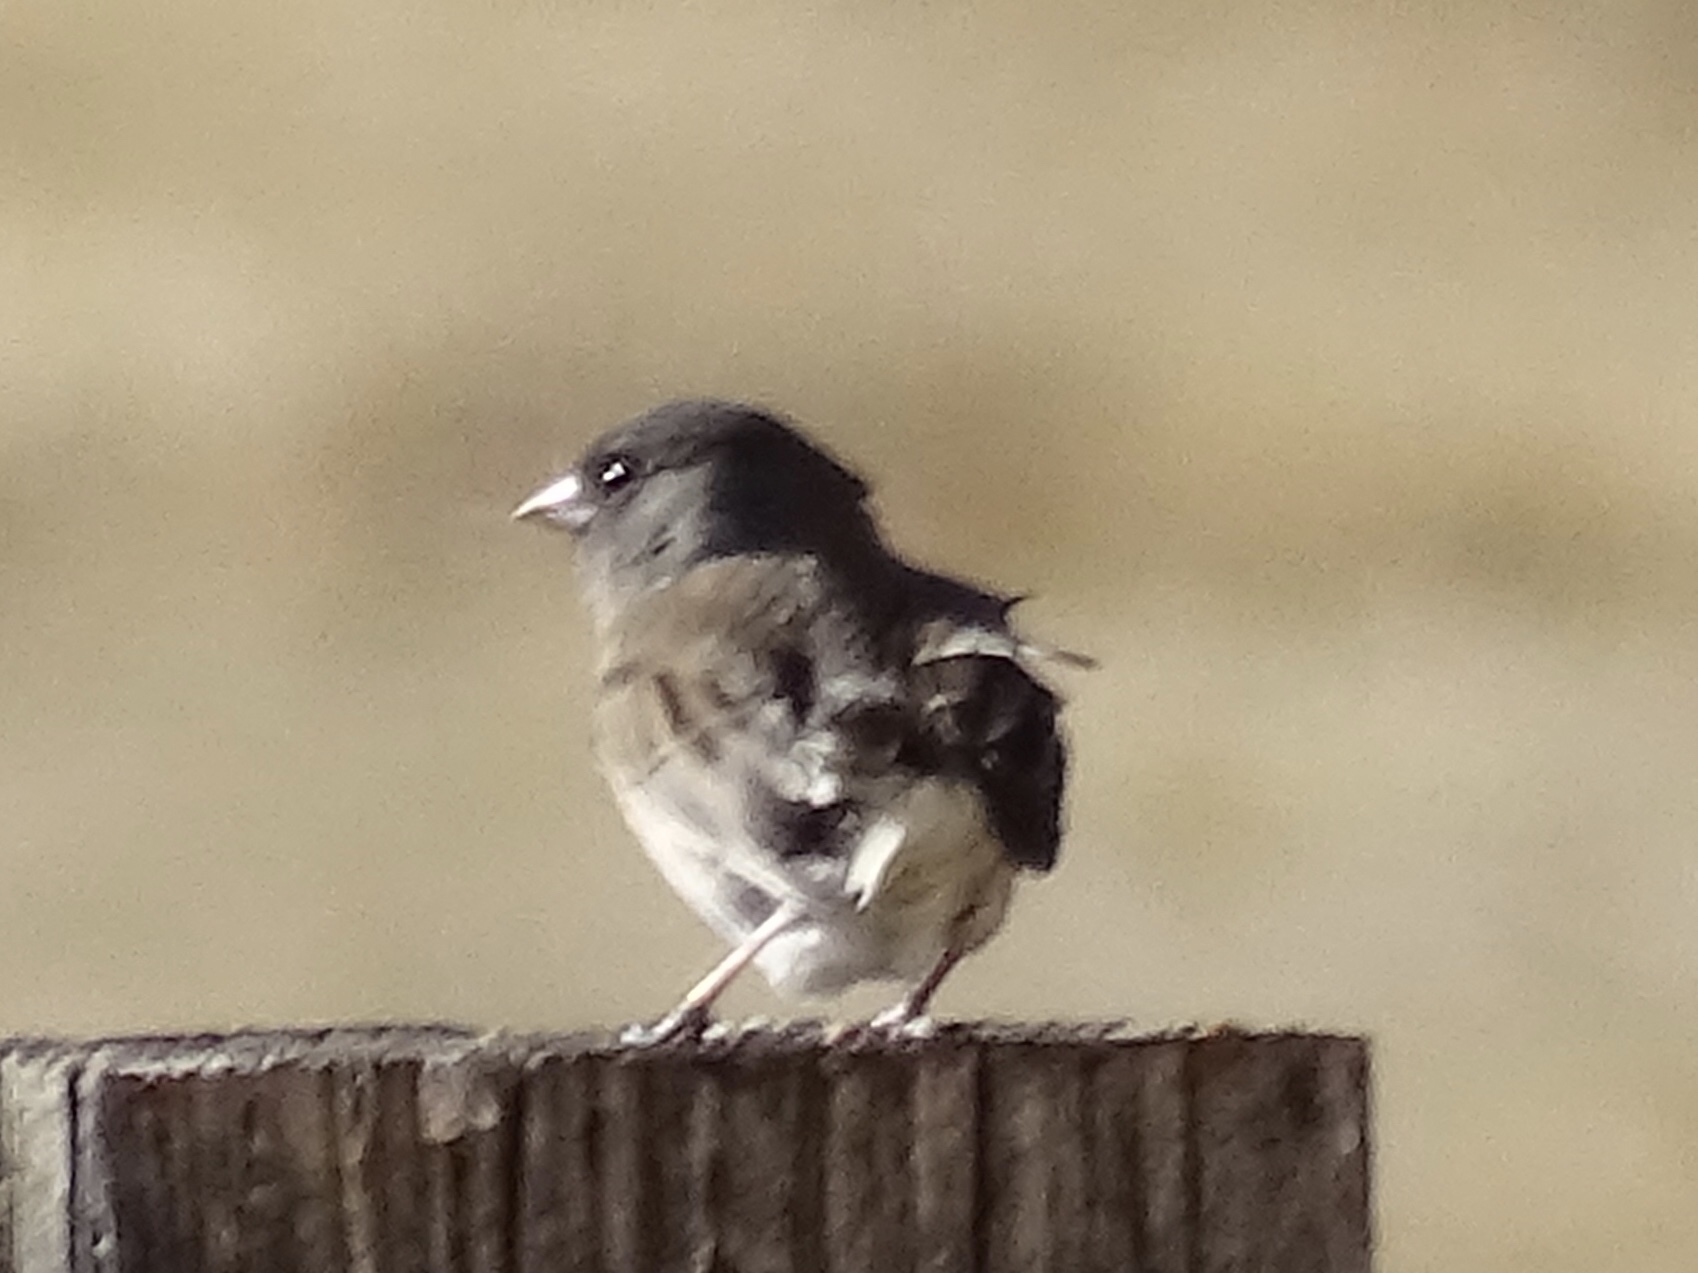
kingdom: Animalia
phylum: Chordata
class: Aves
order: Passeriformes
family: Passerellidae
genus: Junco
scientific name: Junco hyemalis
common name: Dark-eyed junco
